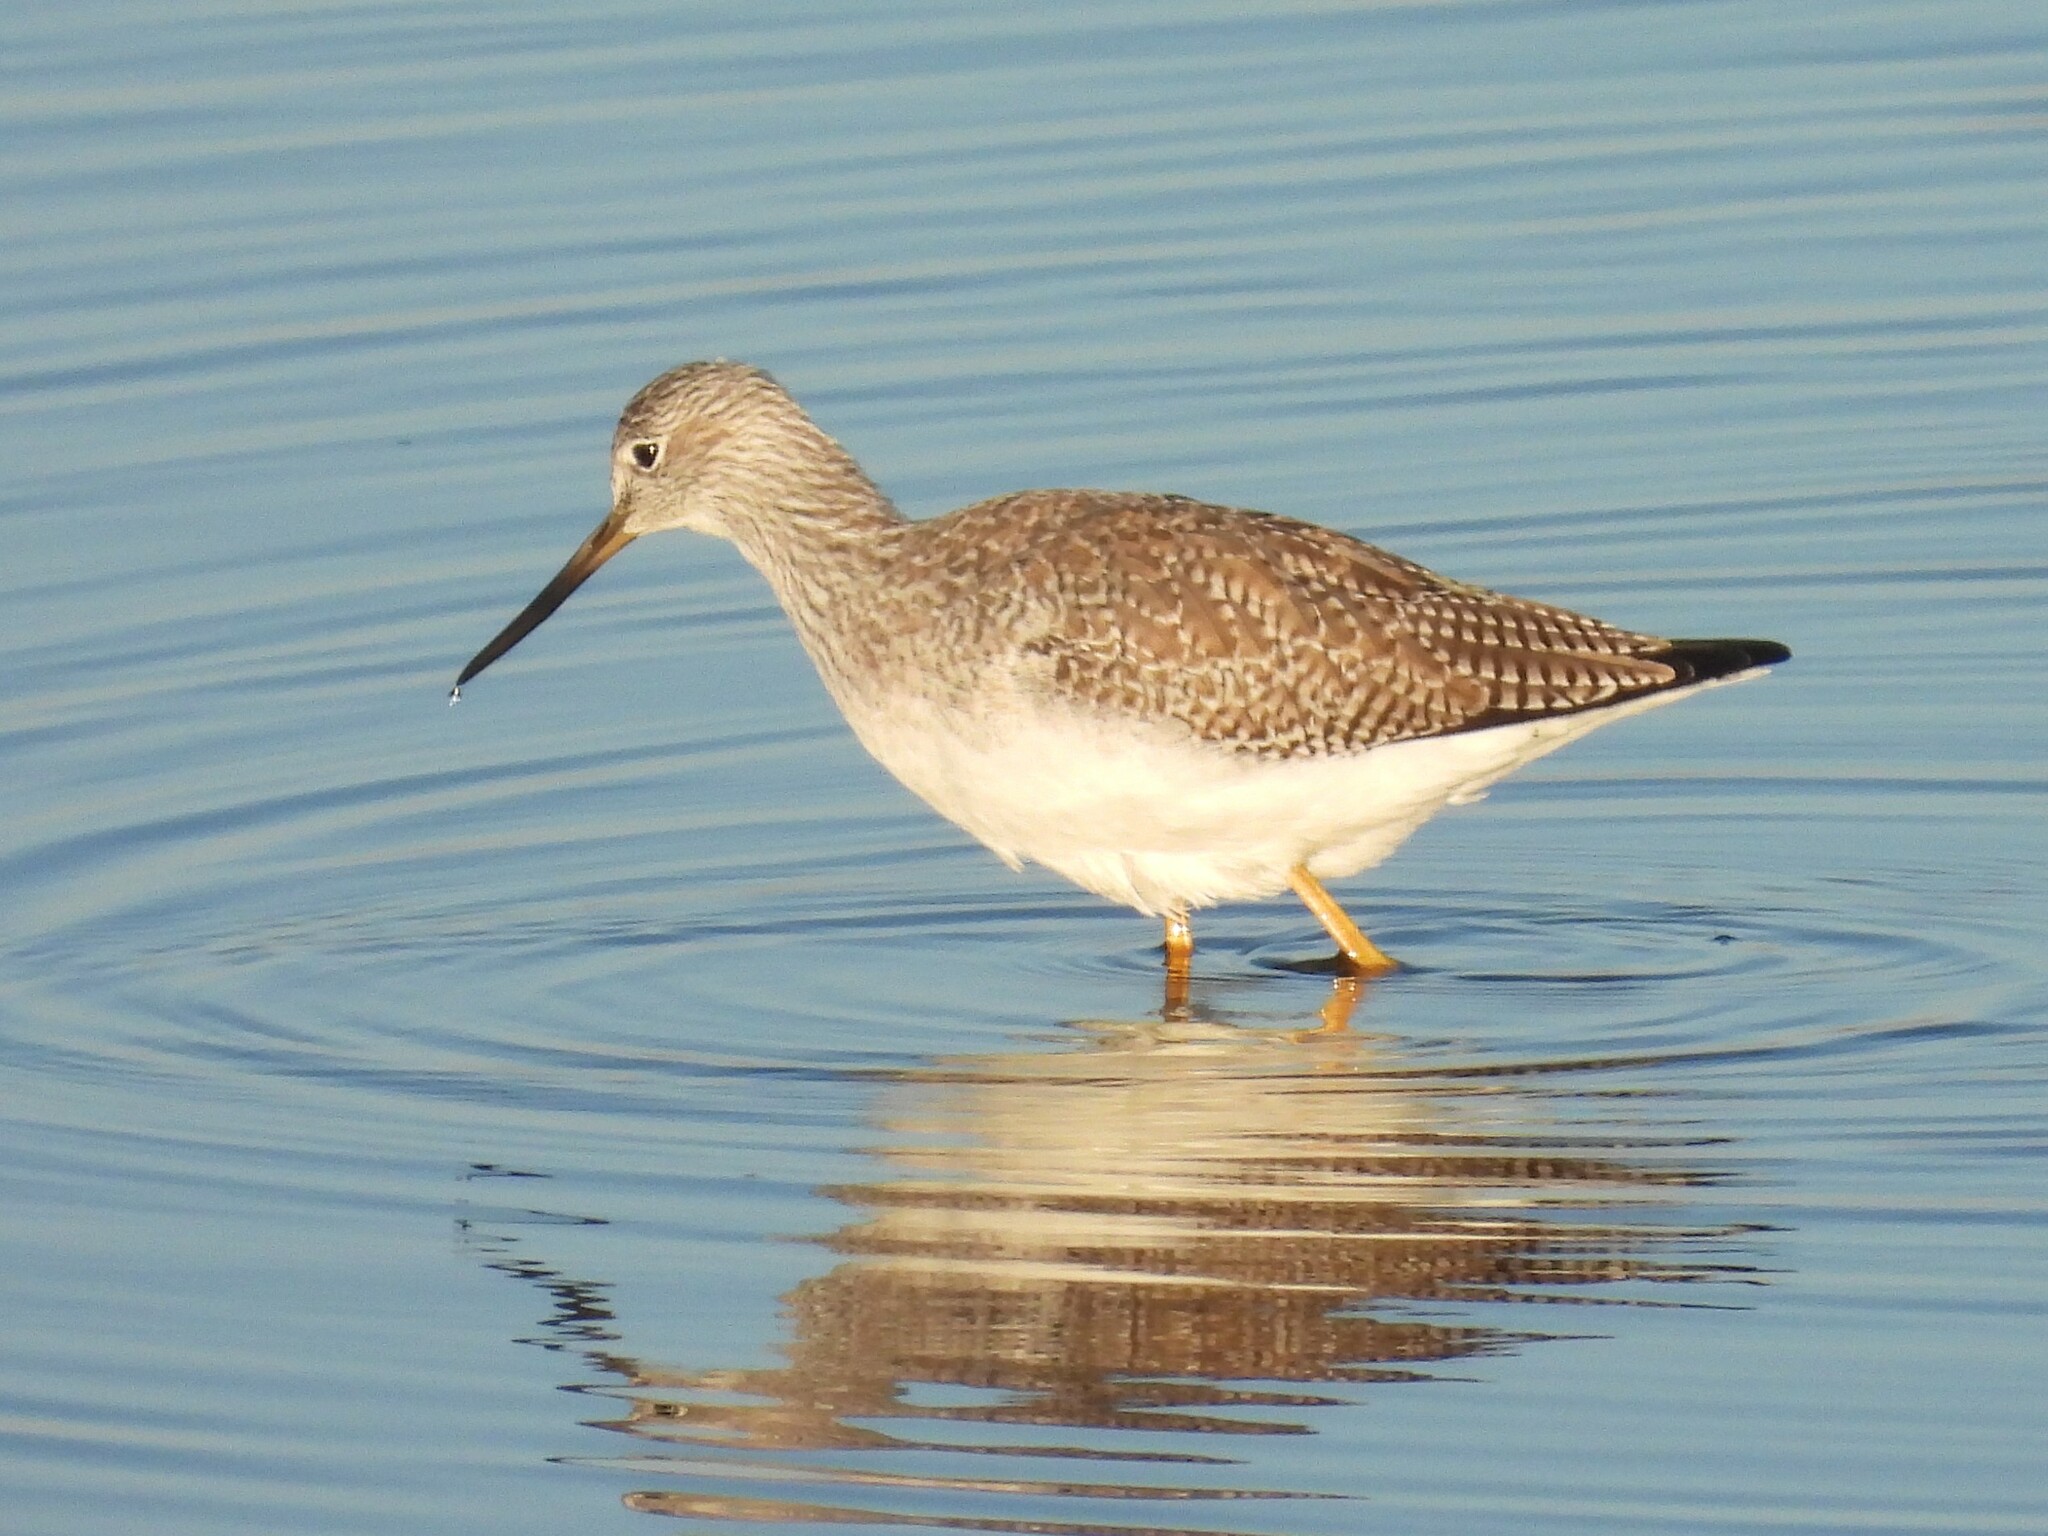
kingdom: Animalia
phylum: Chordata
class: Aves
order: Charadriiformes
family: Scolopacidae
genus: Tringa
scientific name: Tringa melanoleuca
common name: Greater yellowlegs
